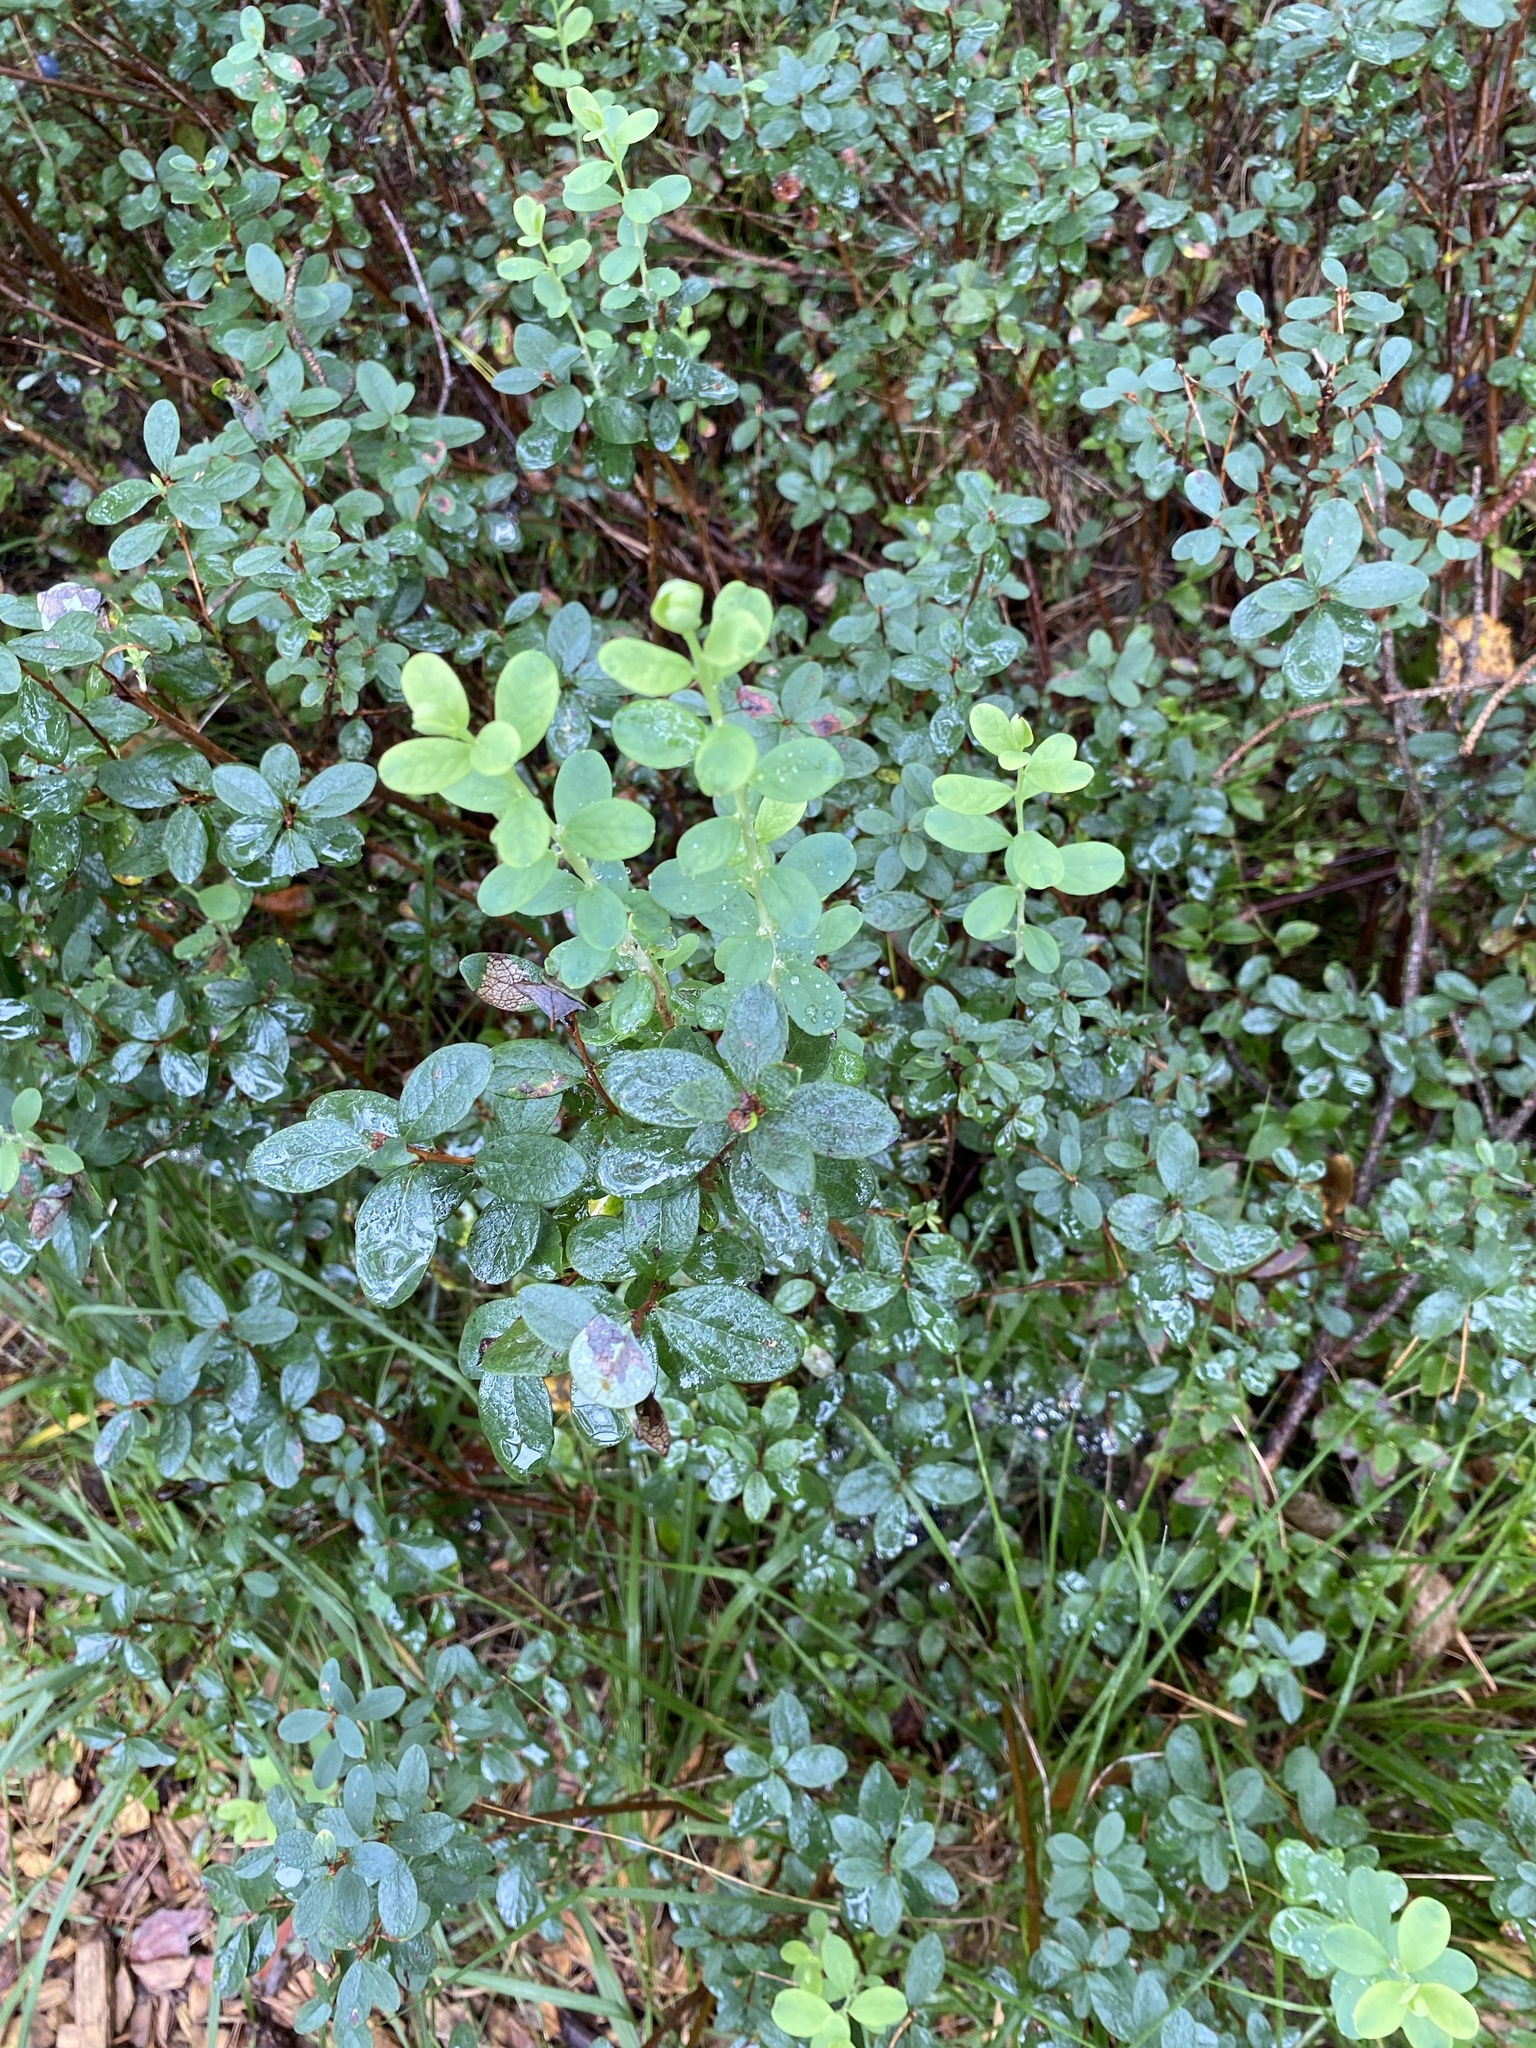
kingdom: Plantae
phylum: Tracheophyta
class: Magnoliopsida
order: Ericales
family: Ericaceae
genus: Vaccinium
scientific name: Vaccinium uliginosum
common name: Bog bilberry
